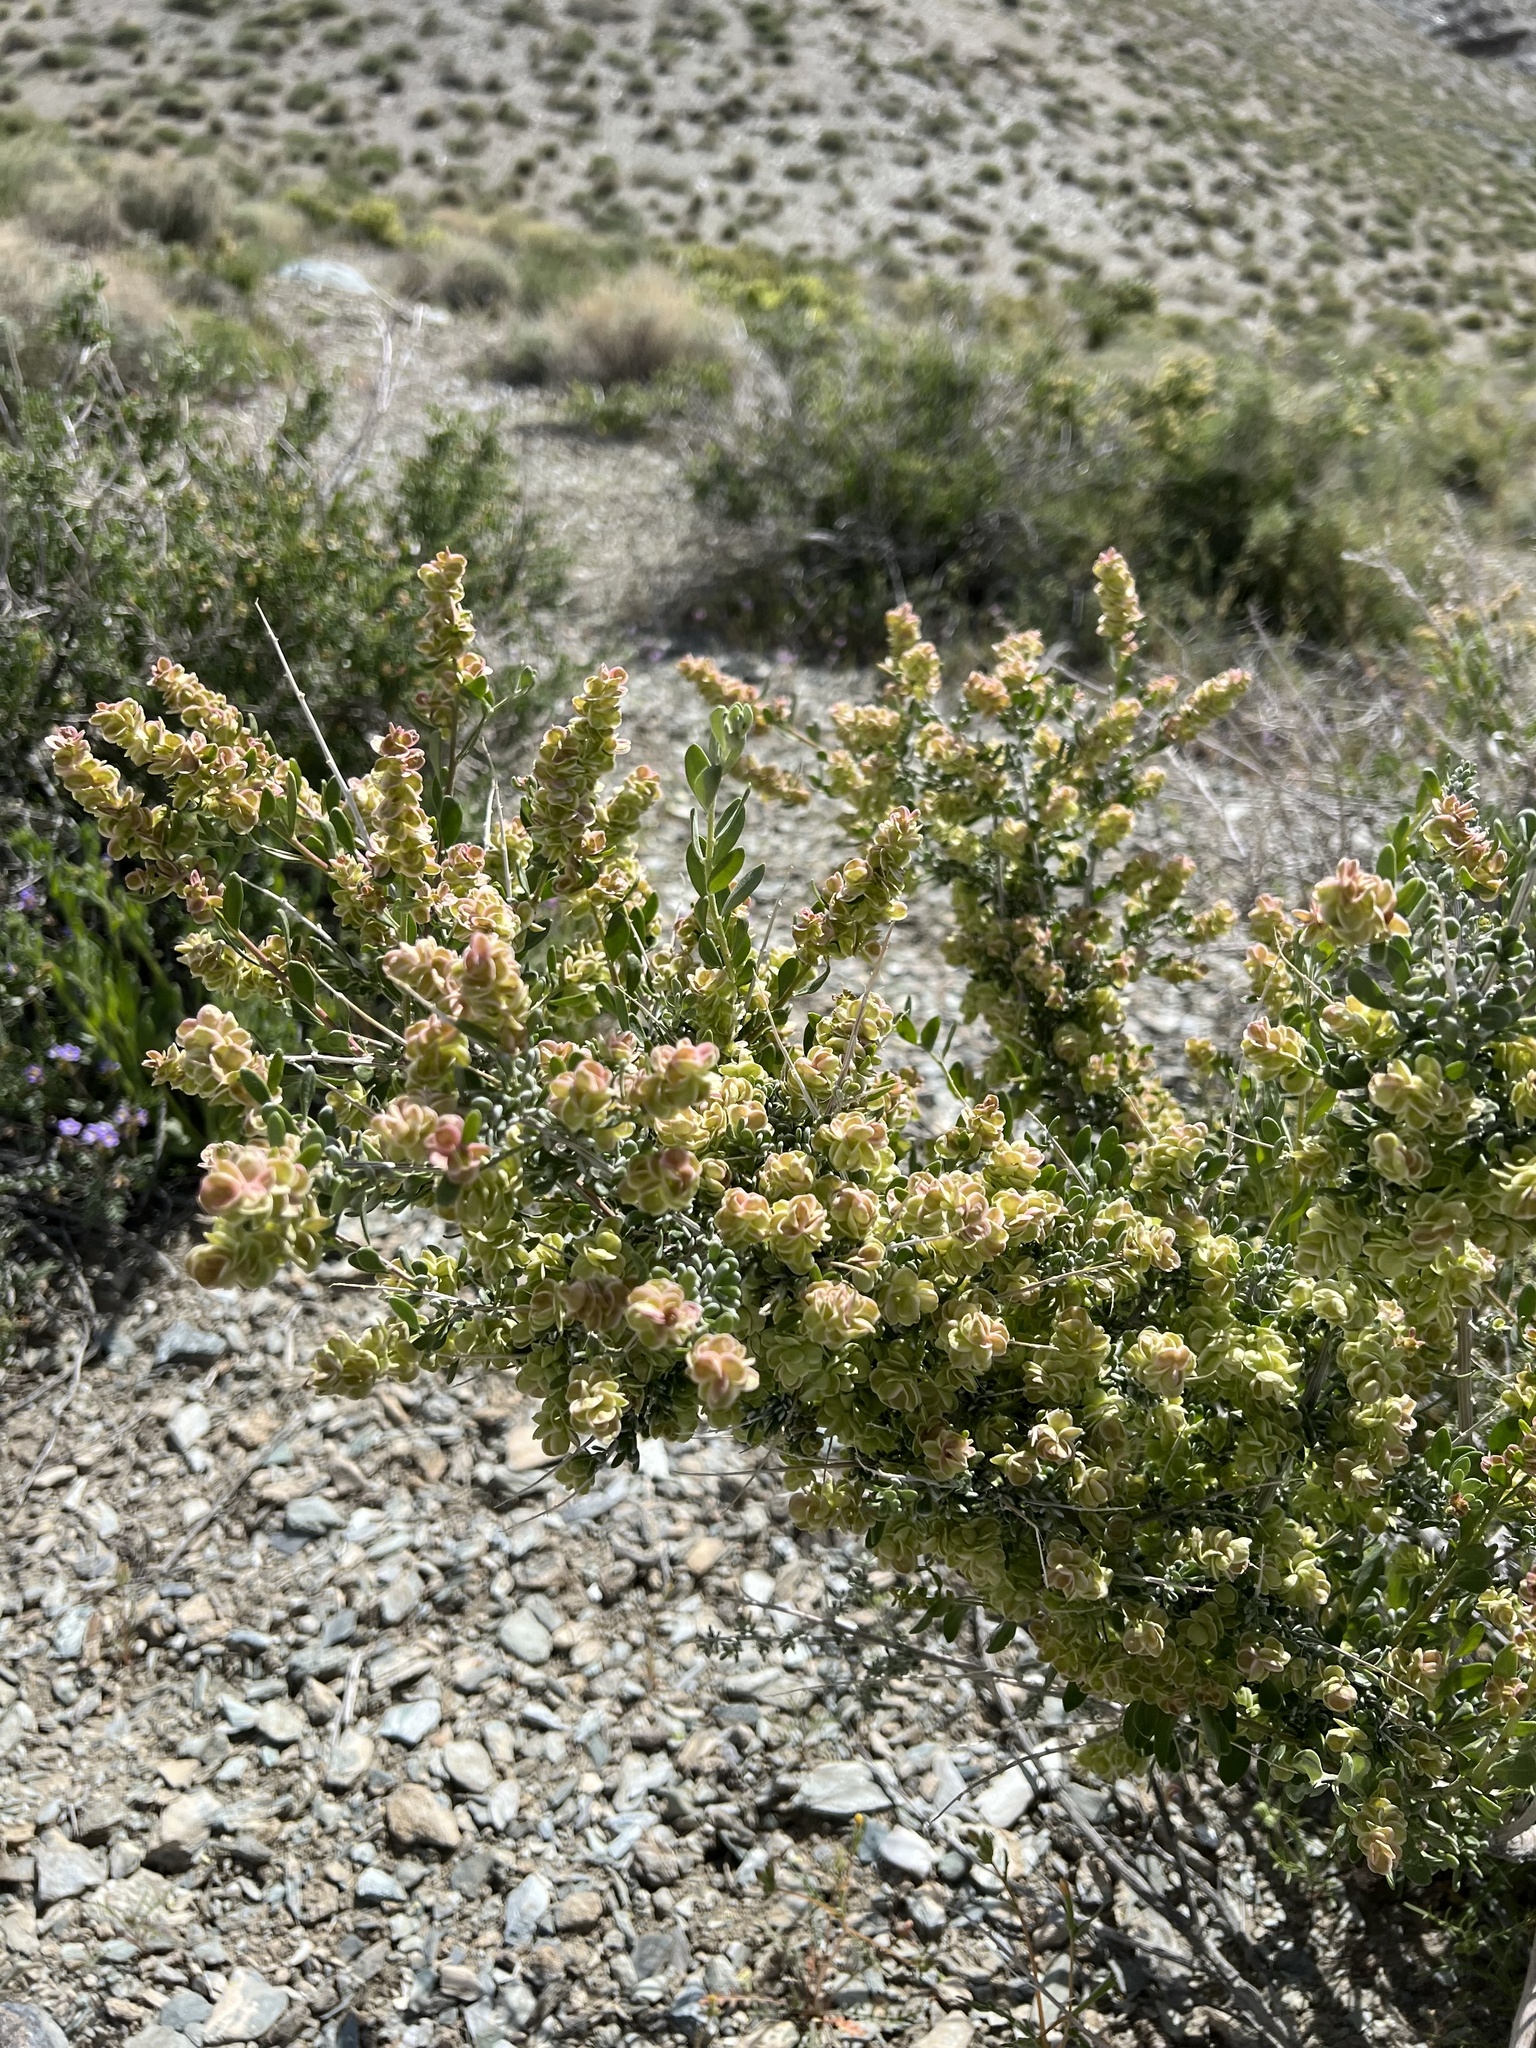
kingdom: Plantae
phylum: Tracheophyta
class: Magnoliopsida
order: Caryophyllales
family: Amaranthaceae
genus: Grayia
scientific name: Grayia spinosa
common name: Spiny hopsage
